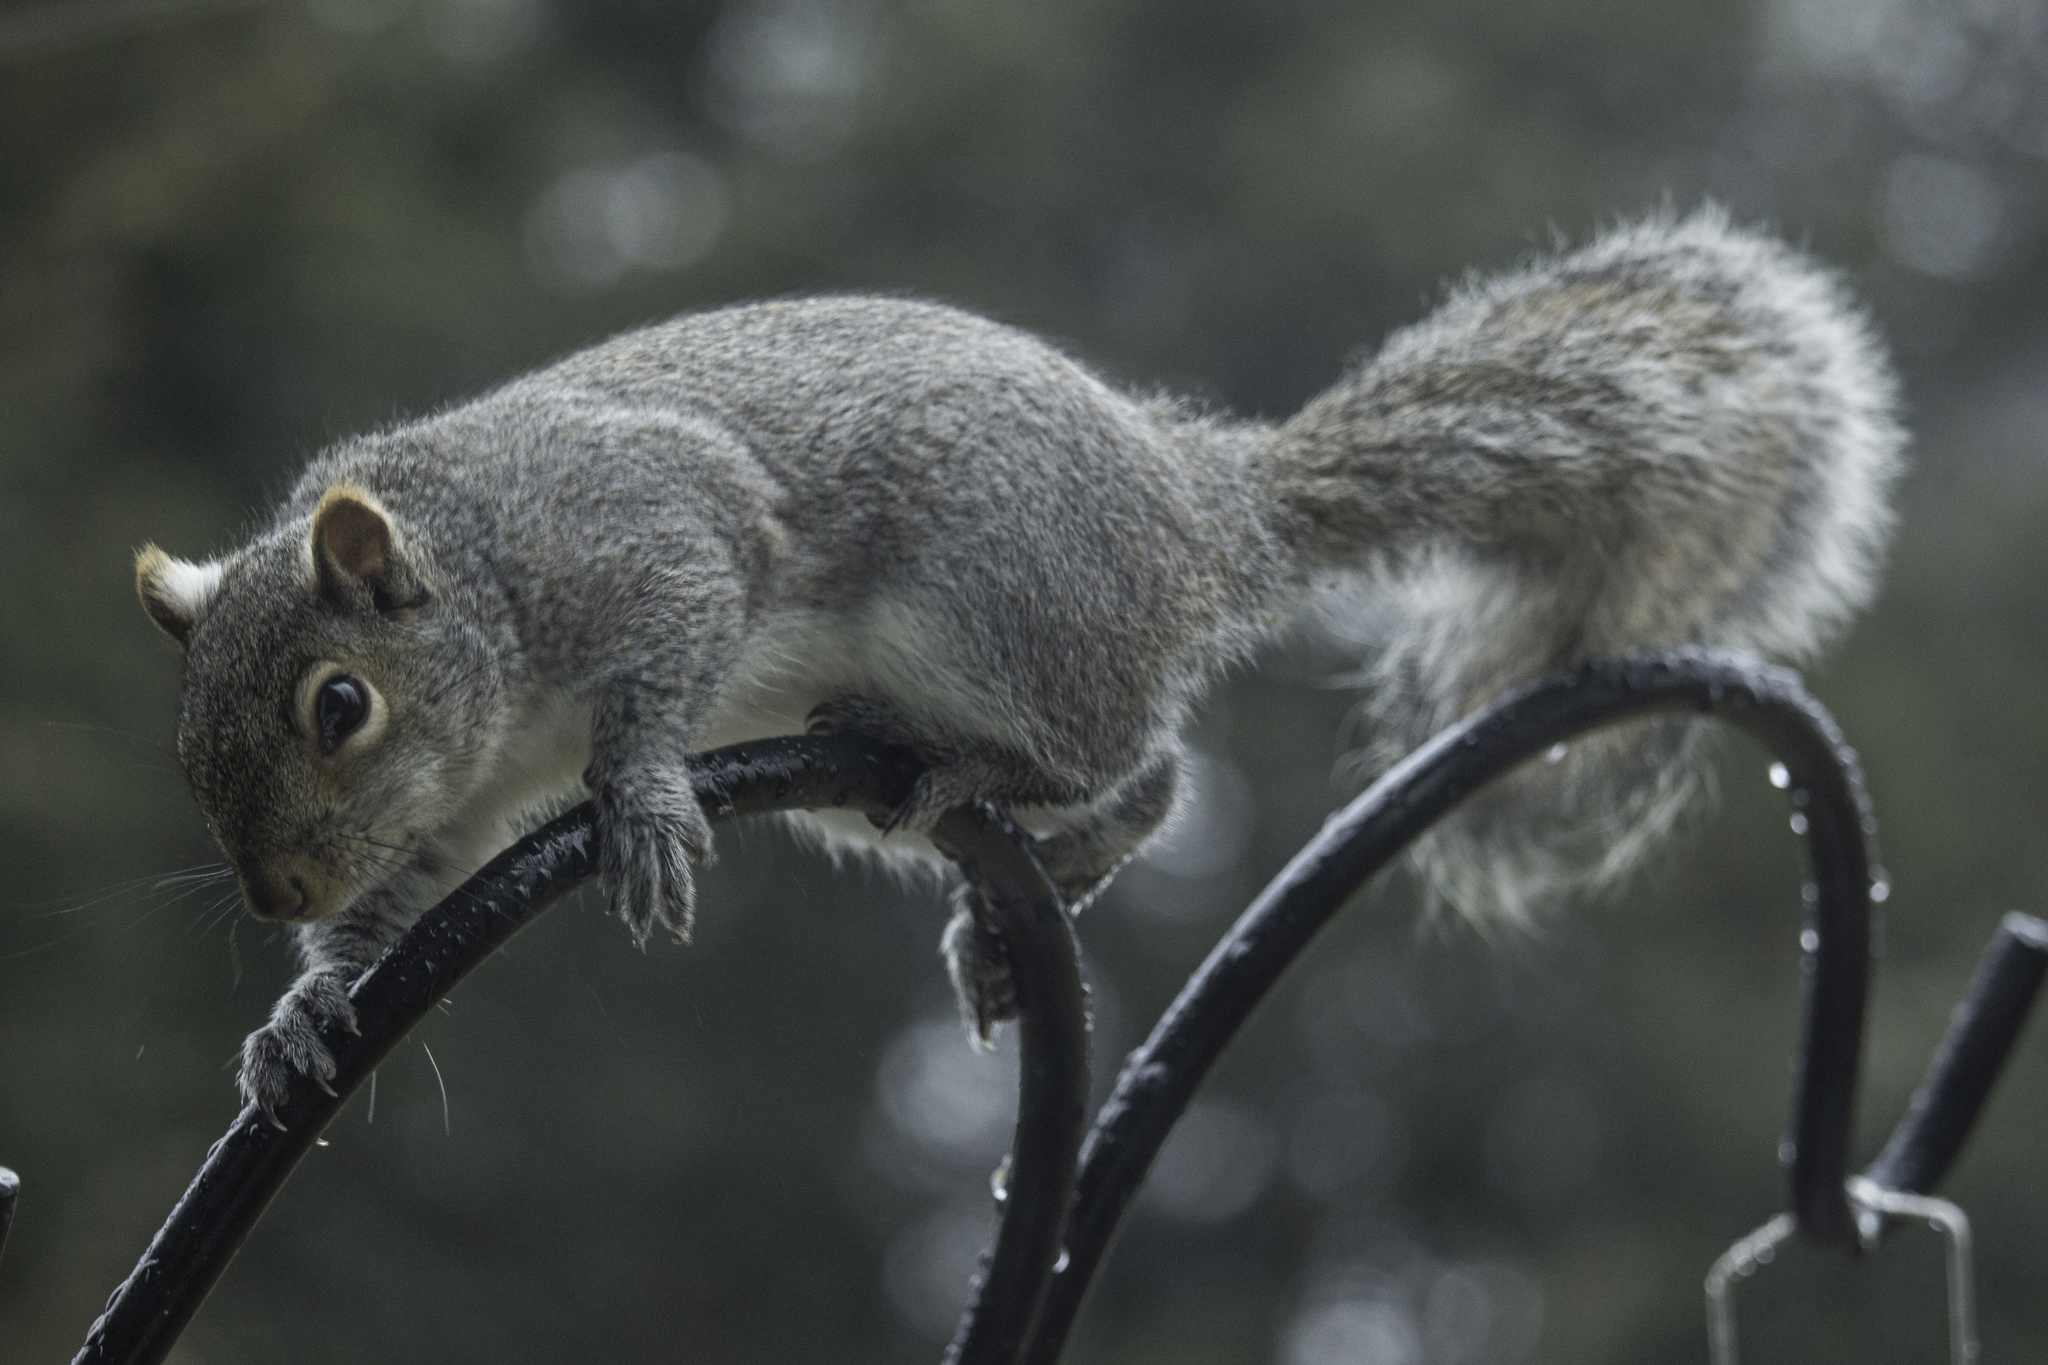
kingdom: Animalia
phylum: Chordata
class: Mammalia
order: Rodentia
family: Sciuridae
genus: Sciurus
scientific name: Sciurus carolinensis
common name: Eastern gray squirrel
